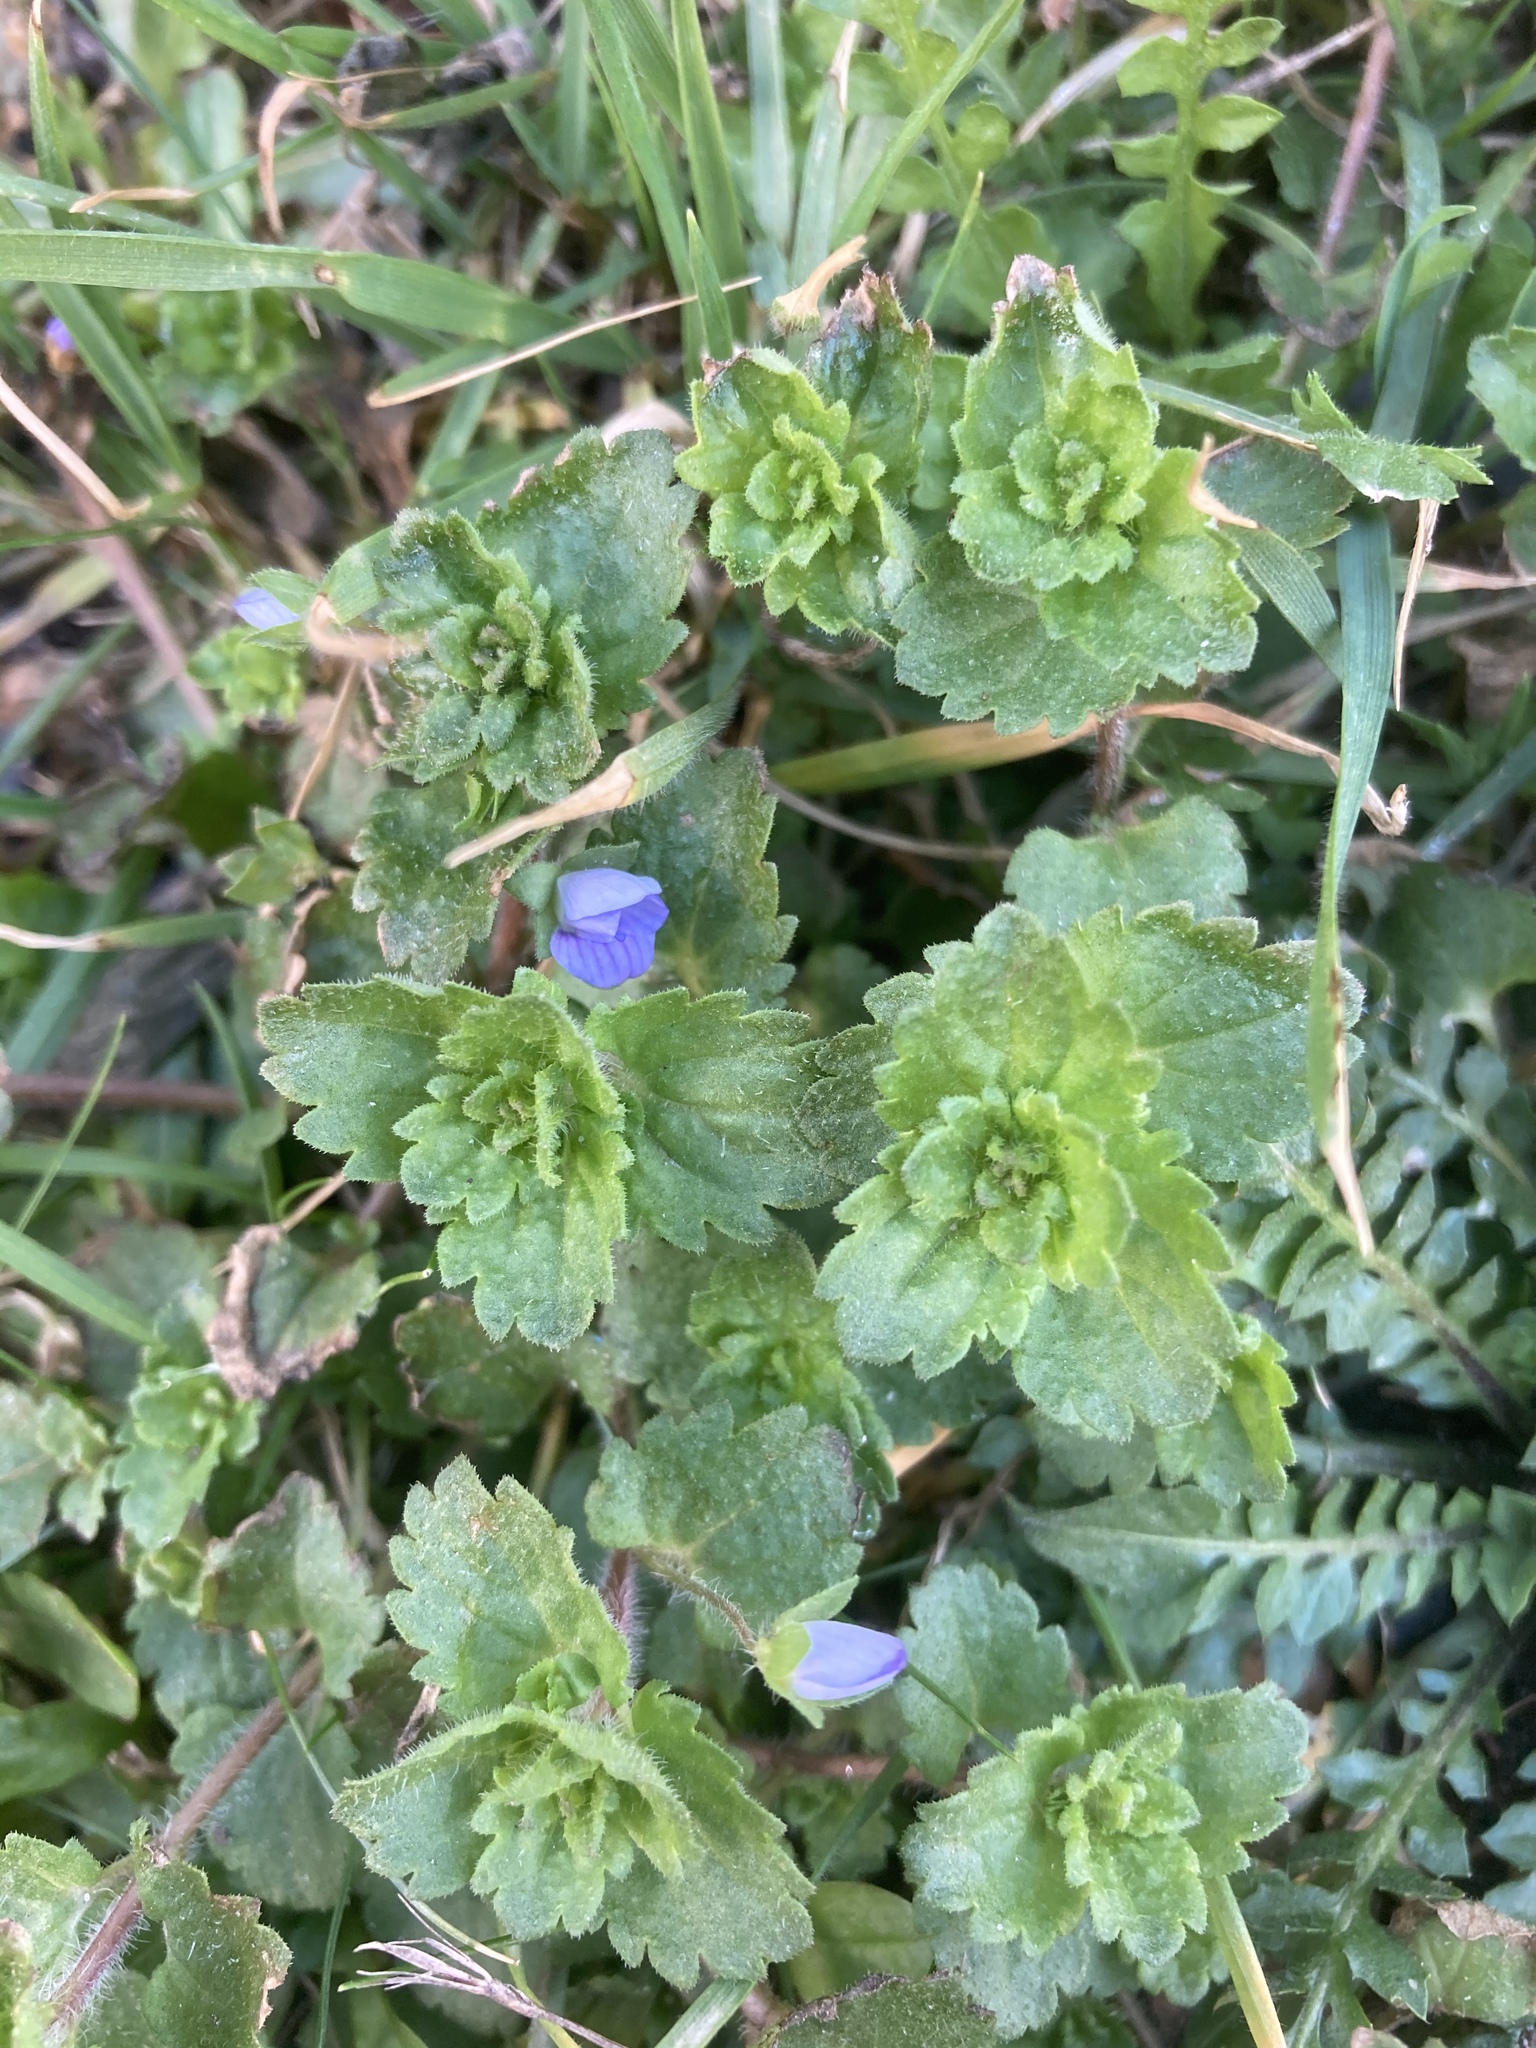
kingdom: Plantae
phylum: Tracheophyta
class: Magnoliopsida
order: Lamiales
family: Plantaginaceae
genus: Veronica
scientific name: Veronica persica
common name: Common field-speedwell
